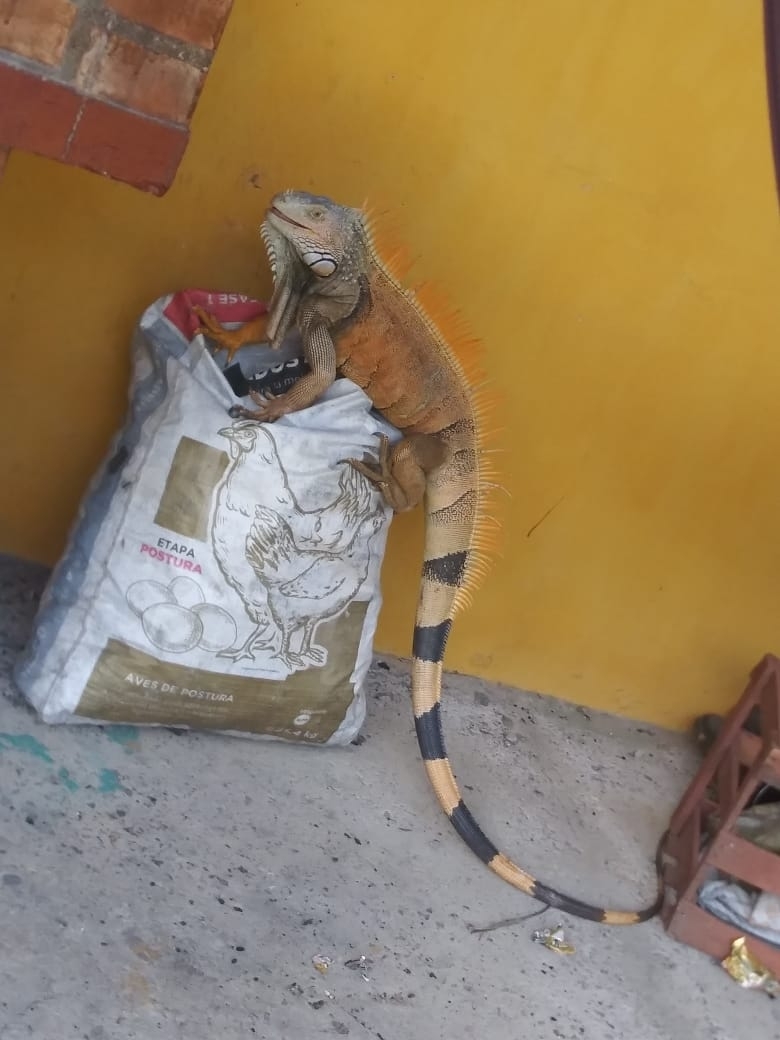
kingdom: Animalia
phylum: Chordata
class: Squamata
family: Iguanidae
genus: Iguana
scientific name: Iguana iguana
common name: Green iguana
